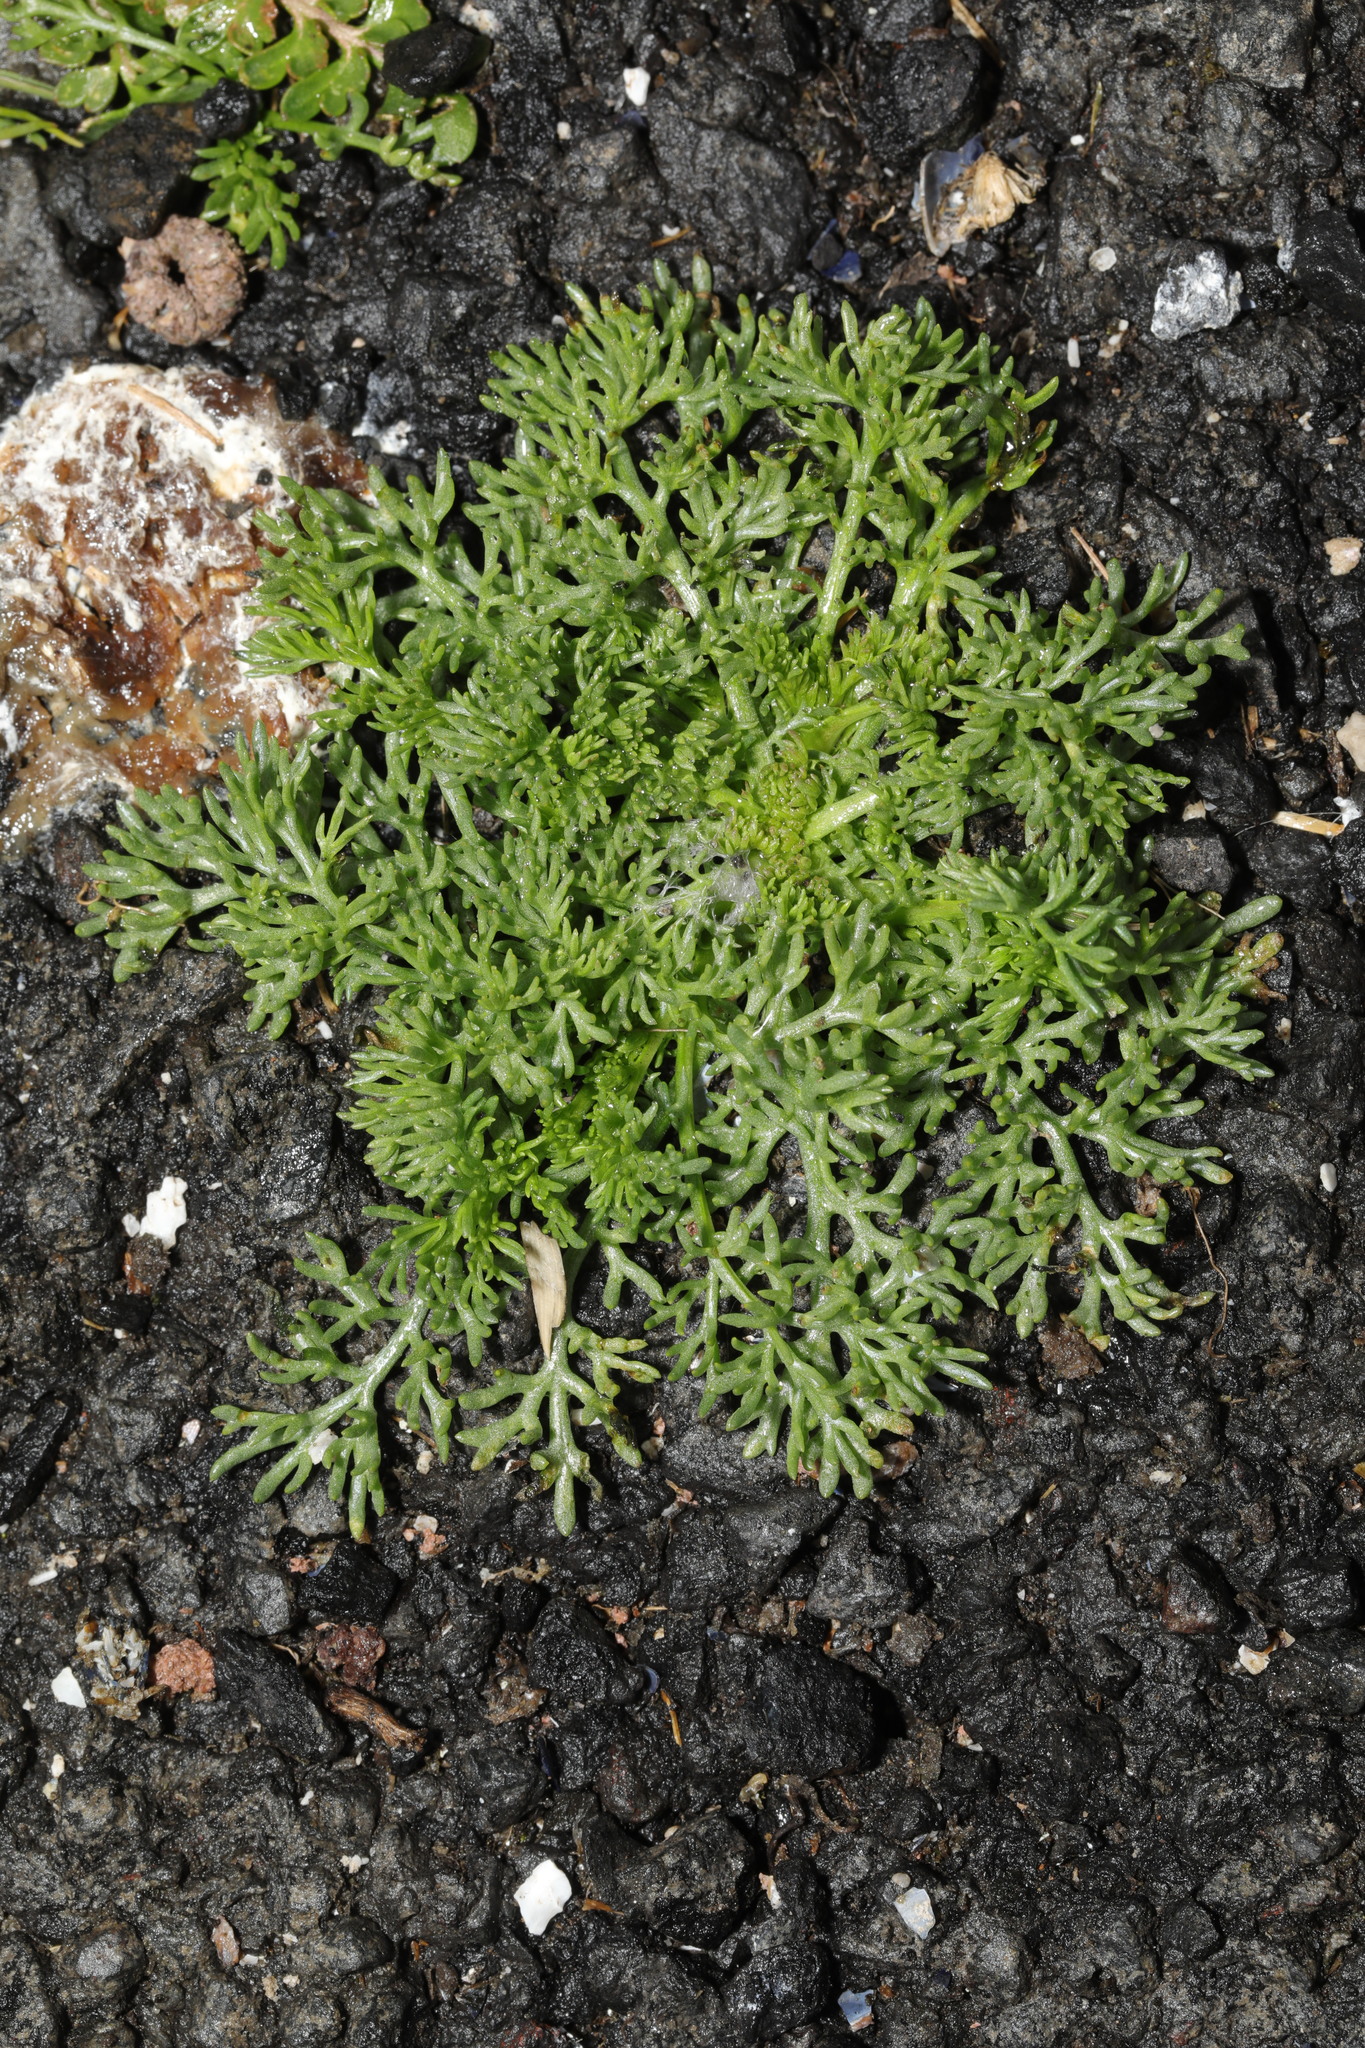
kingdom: Plantae
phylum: Tracheophyta
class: Magnoliopsida
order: Asterales
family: Asteraceae
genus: Matricaria
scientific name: Matricaria discoidea
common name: Disc mayweed
